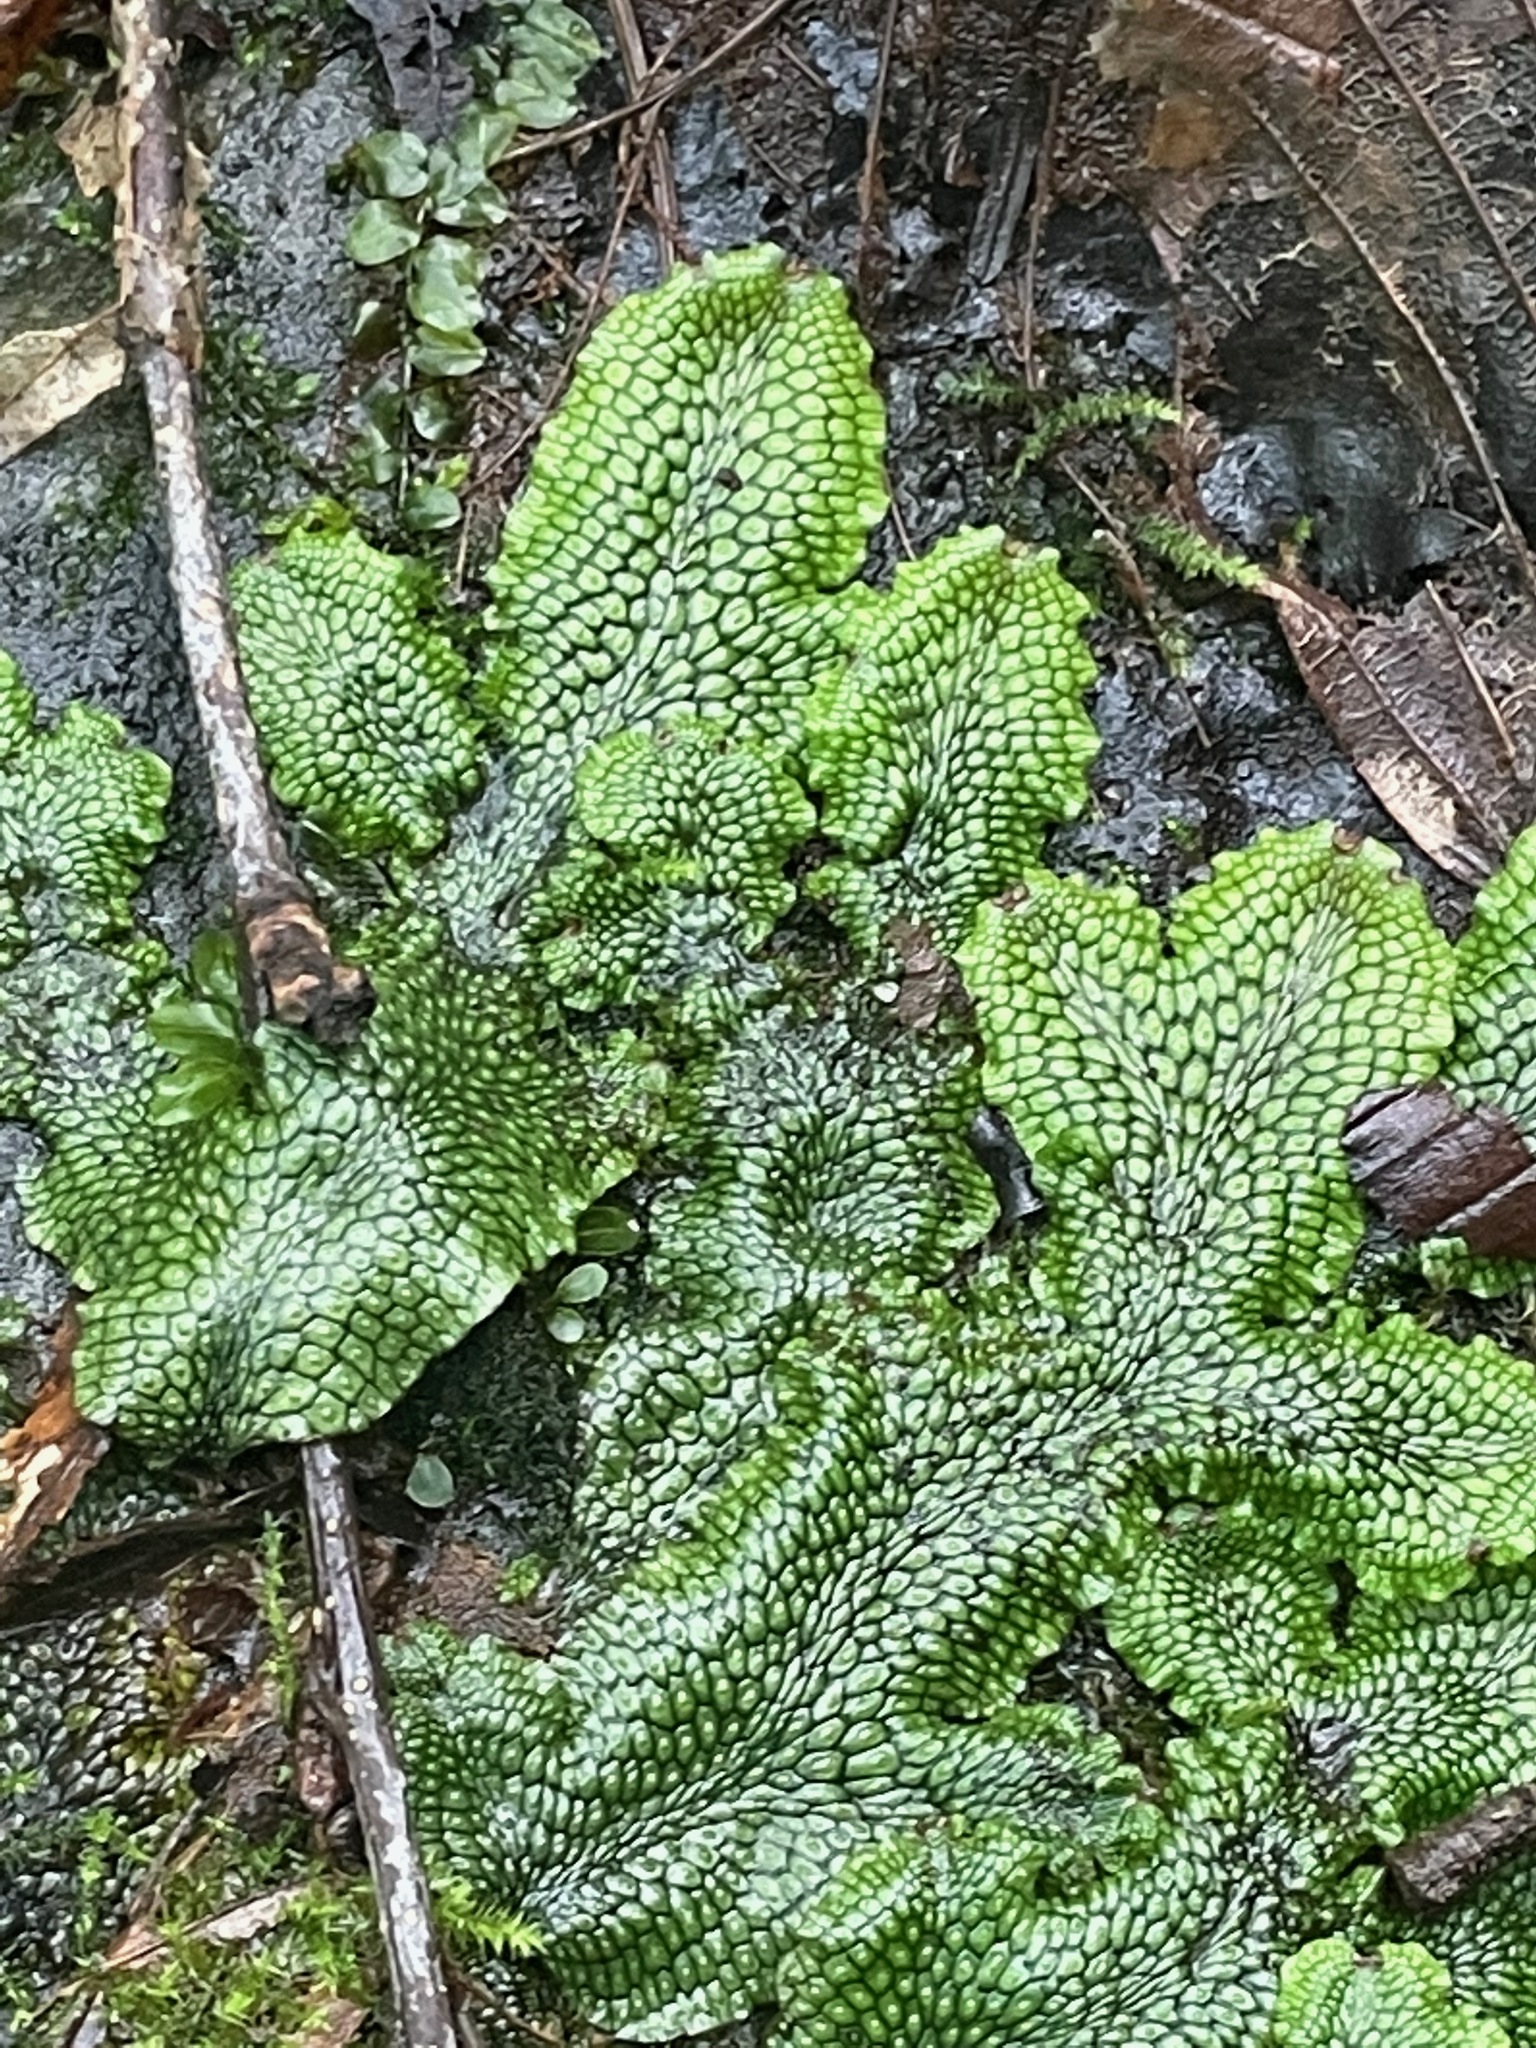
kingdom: Plantae
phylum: Marchantiophyta
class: Marchantiopsida
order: Marchantiales
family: Conocephalaceae
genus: Conocephalum
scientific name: Conocephalum salebrosum
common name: Cat-tongue liverwort
